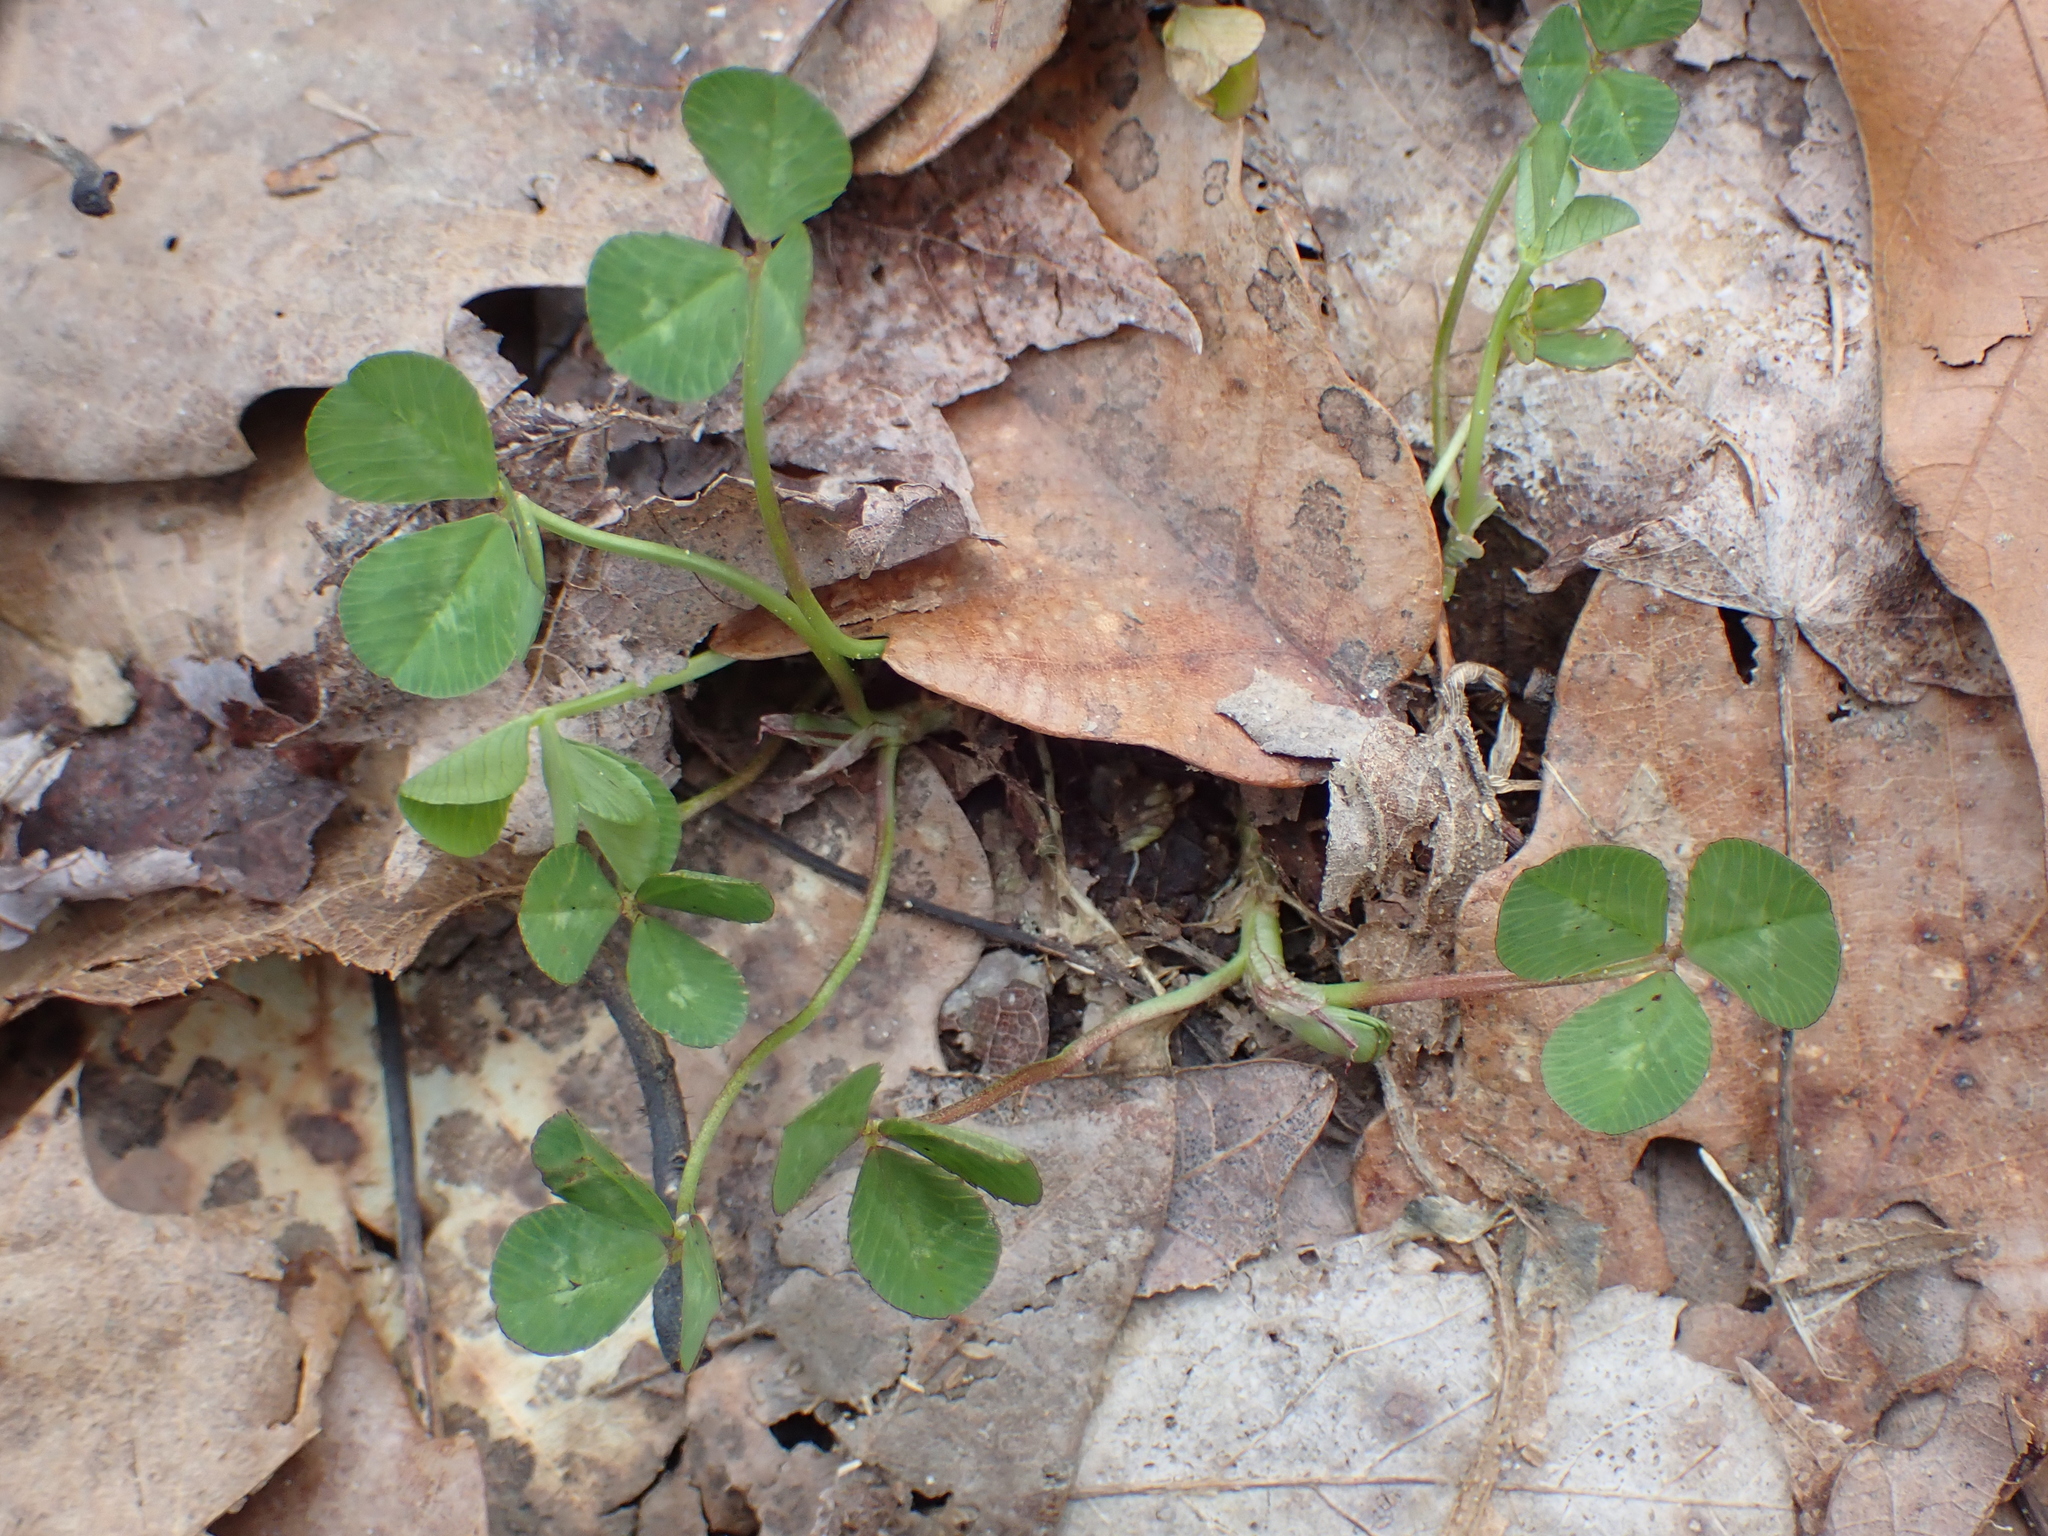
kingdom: Plantae
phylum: Tracheophyta
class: Magnoliopsida
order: Fabales
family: Fabaceae
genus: Trifolium
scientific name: Trifolium repens
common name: White clover
